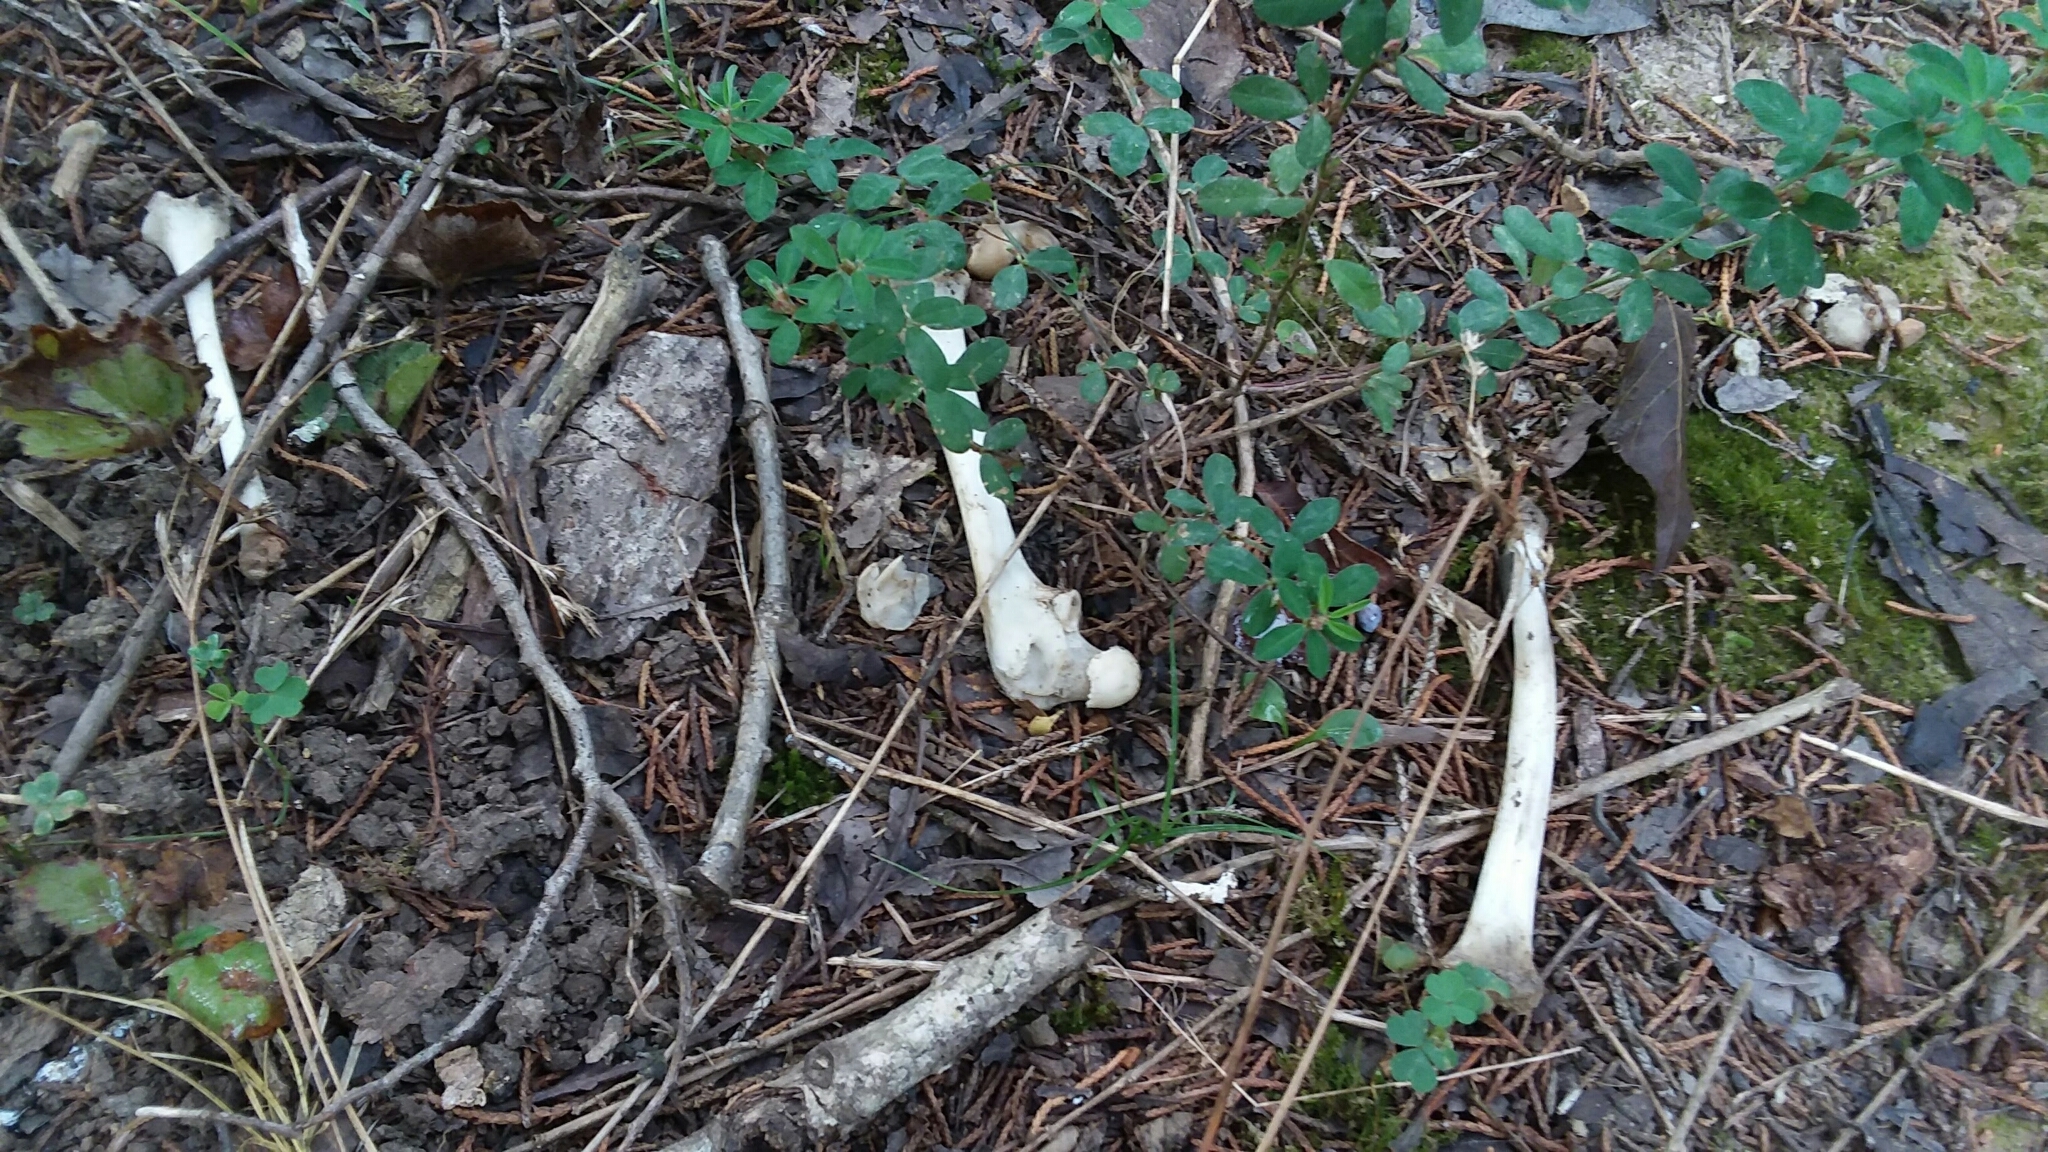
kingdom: Animalia
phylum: Chordata
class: Mammalia
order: Didelphimorphia
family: Didelphidae
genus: Didelphis
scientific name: Didelphis virginiana
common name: Virginia opossum
